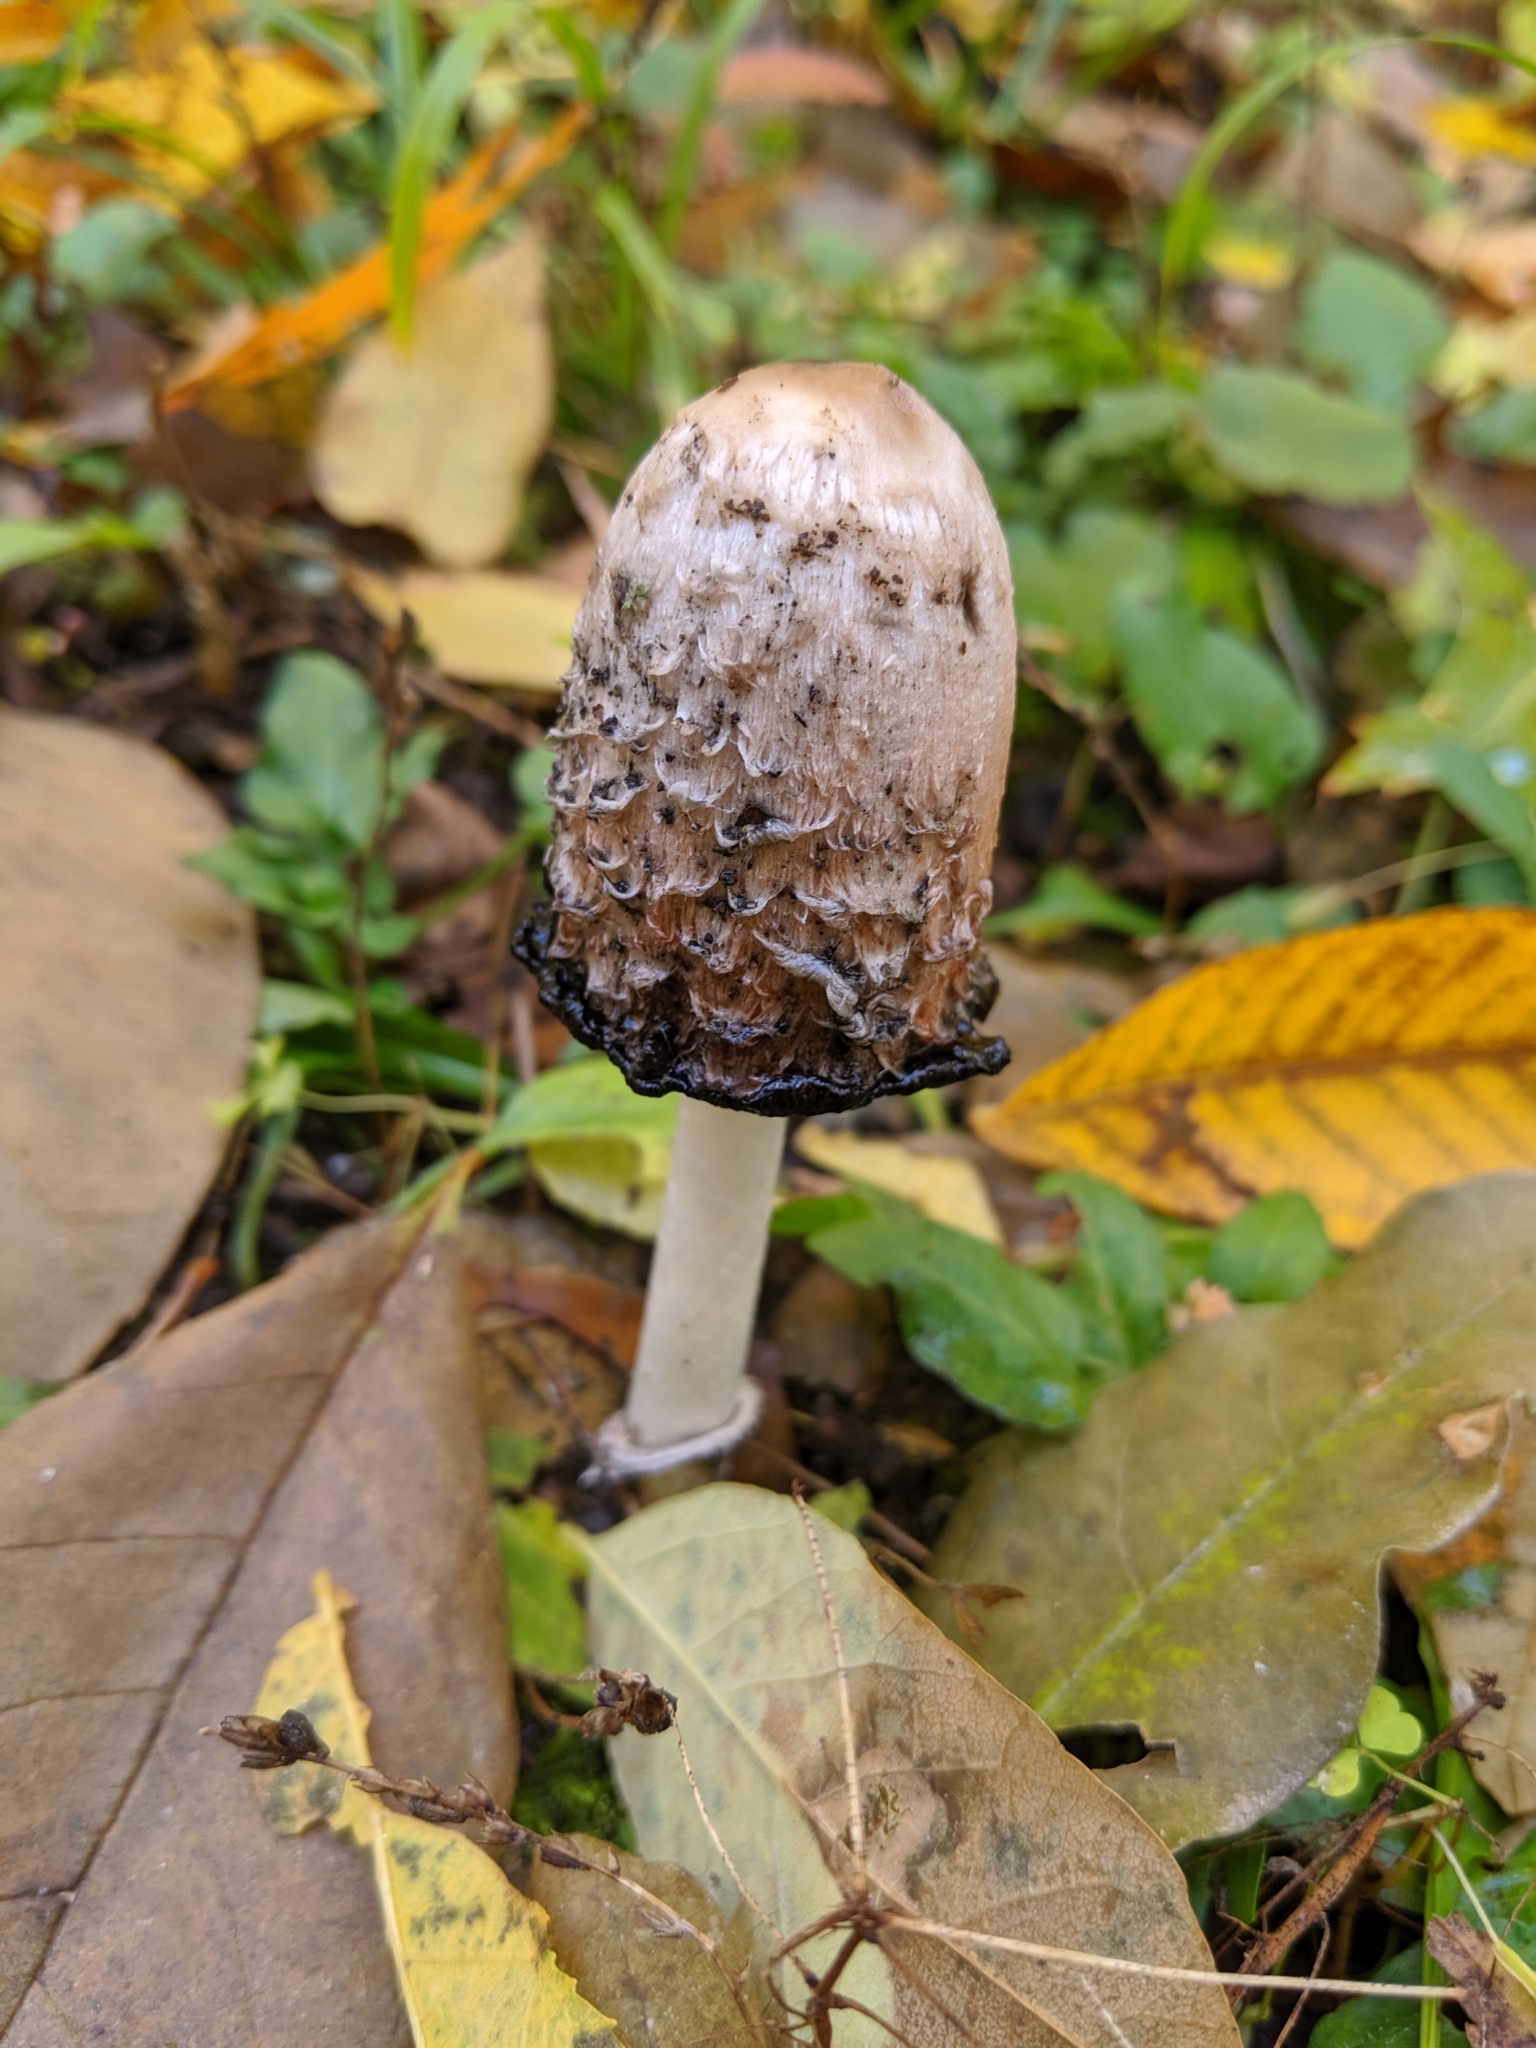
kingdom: Fungi
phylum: Basidiomycota
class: Agaricomycetes
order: Agaricales
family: Agaricaceae
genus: Coprinus
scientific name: Coprinus comatus
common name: Lawyer's wig
